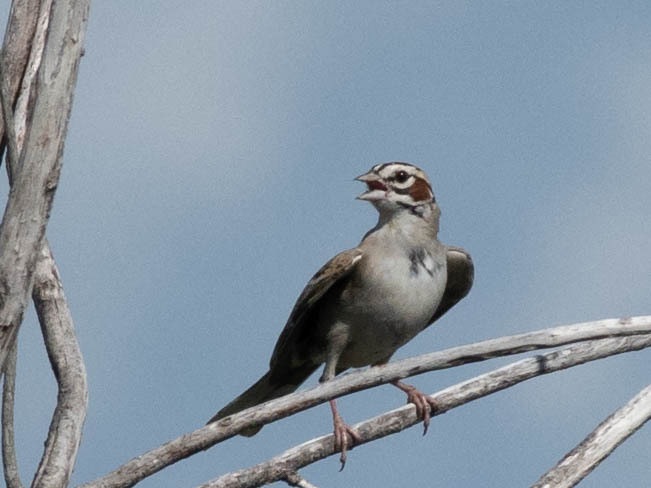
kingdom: Animalia
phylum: Chordata
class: Aves
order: Passeriformes
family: Passerellidae
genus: Chondestes
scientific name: Chondestes grammacus
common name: Lark sparrow
